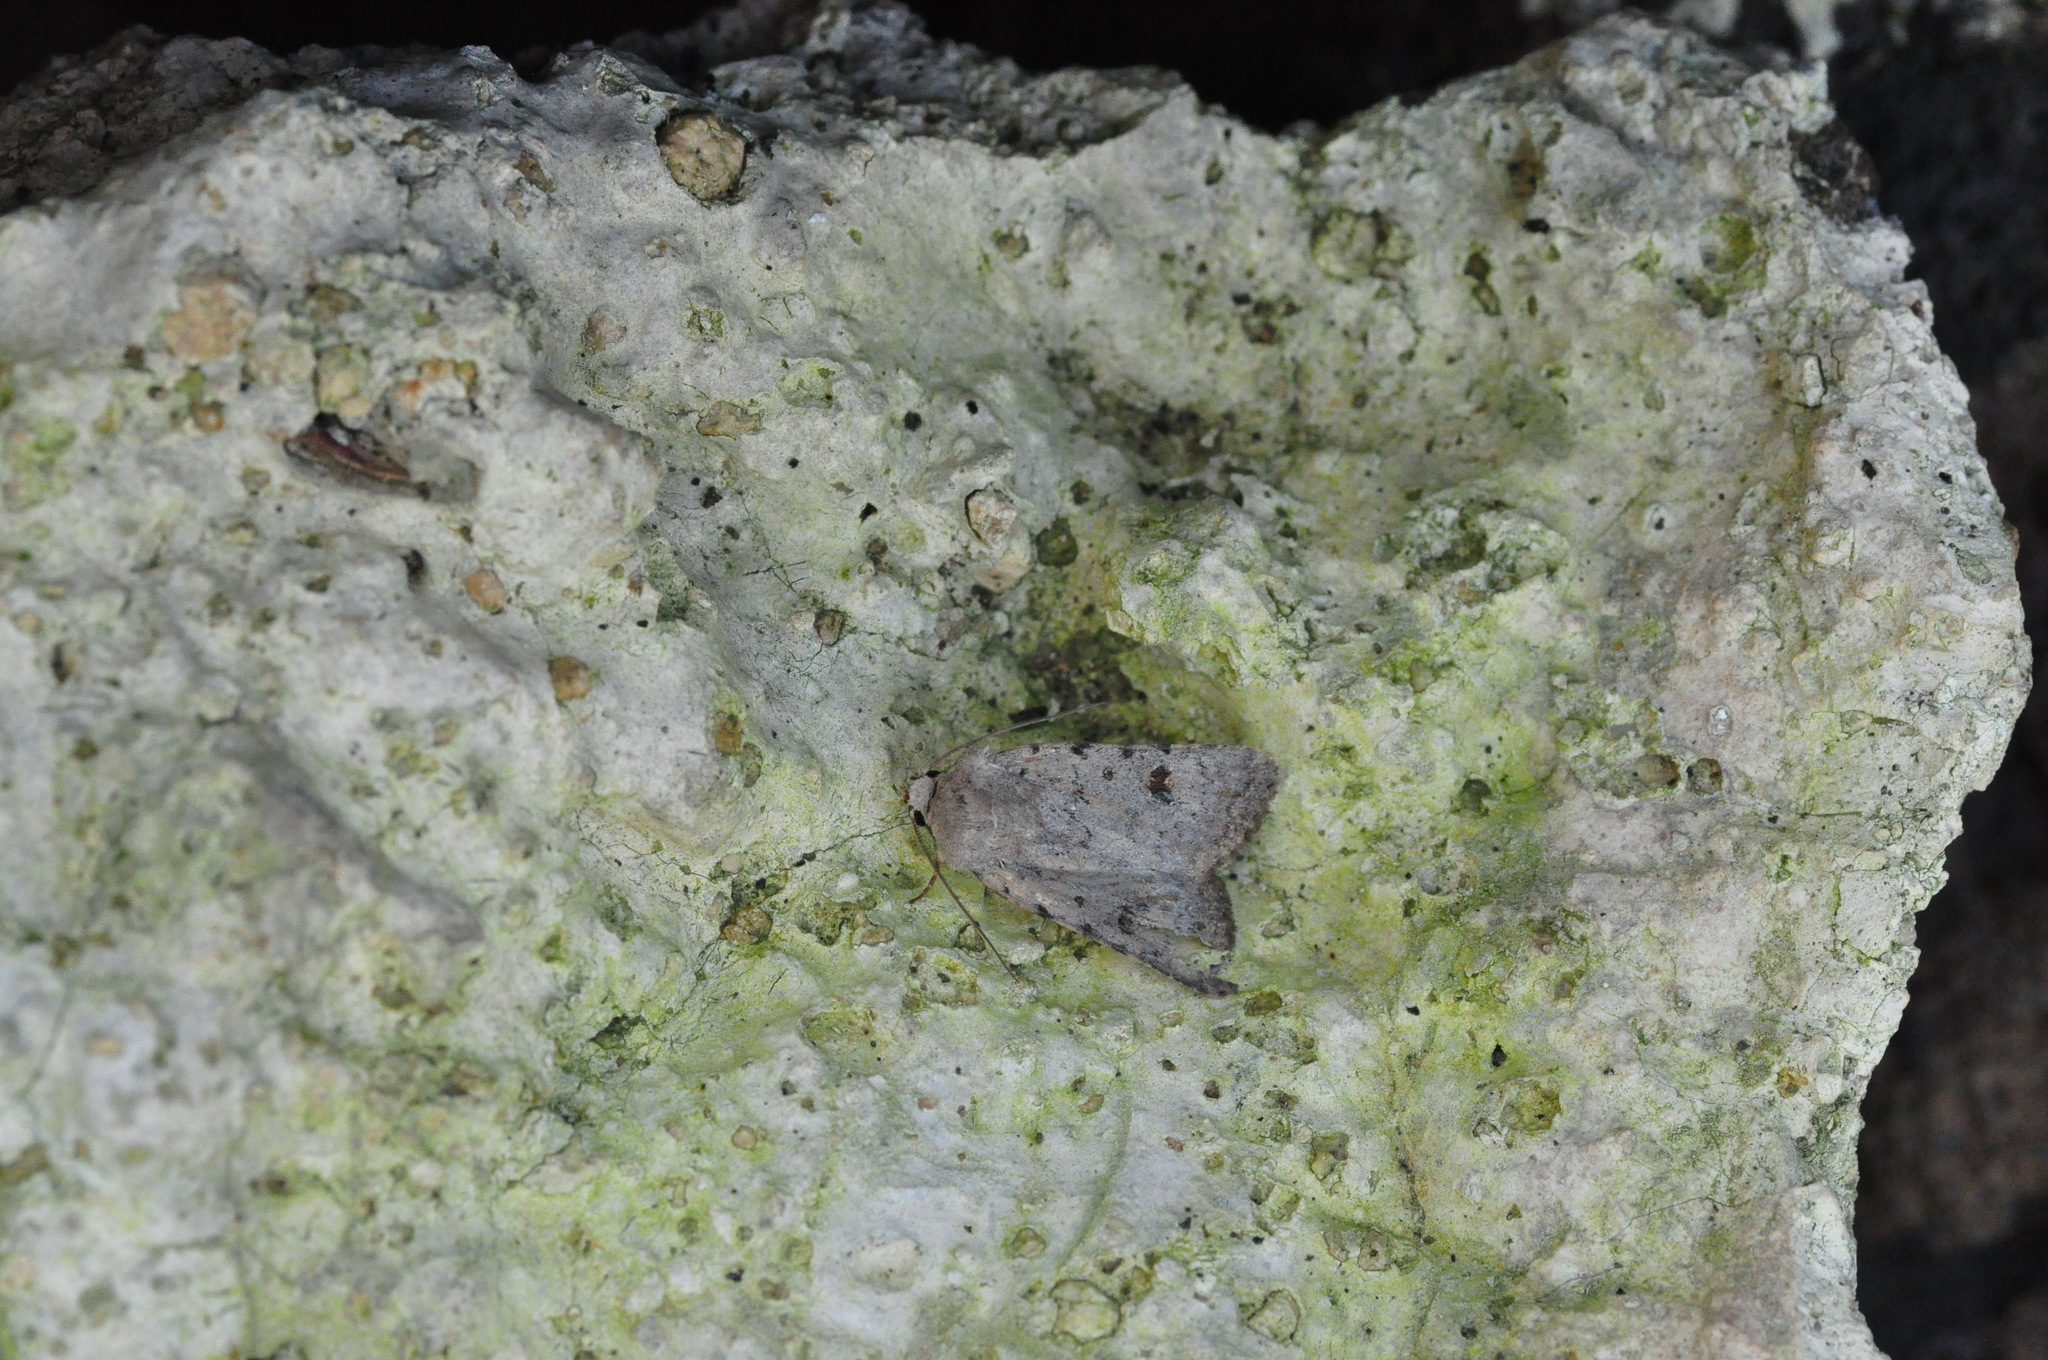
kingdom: Animalia
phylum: Arthropoda
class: Insecta
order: Lepidoptera
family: Noctuidae
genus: Caradrina
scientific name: Caradrina rebeli
